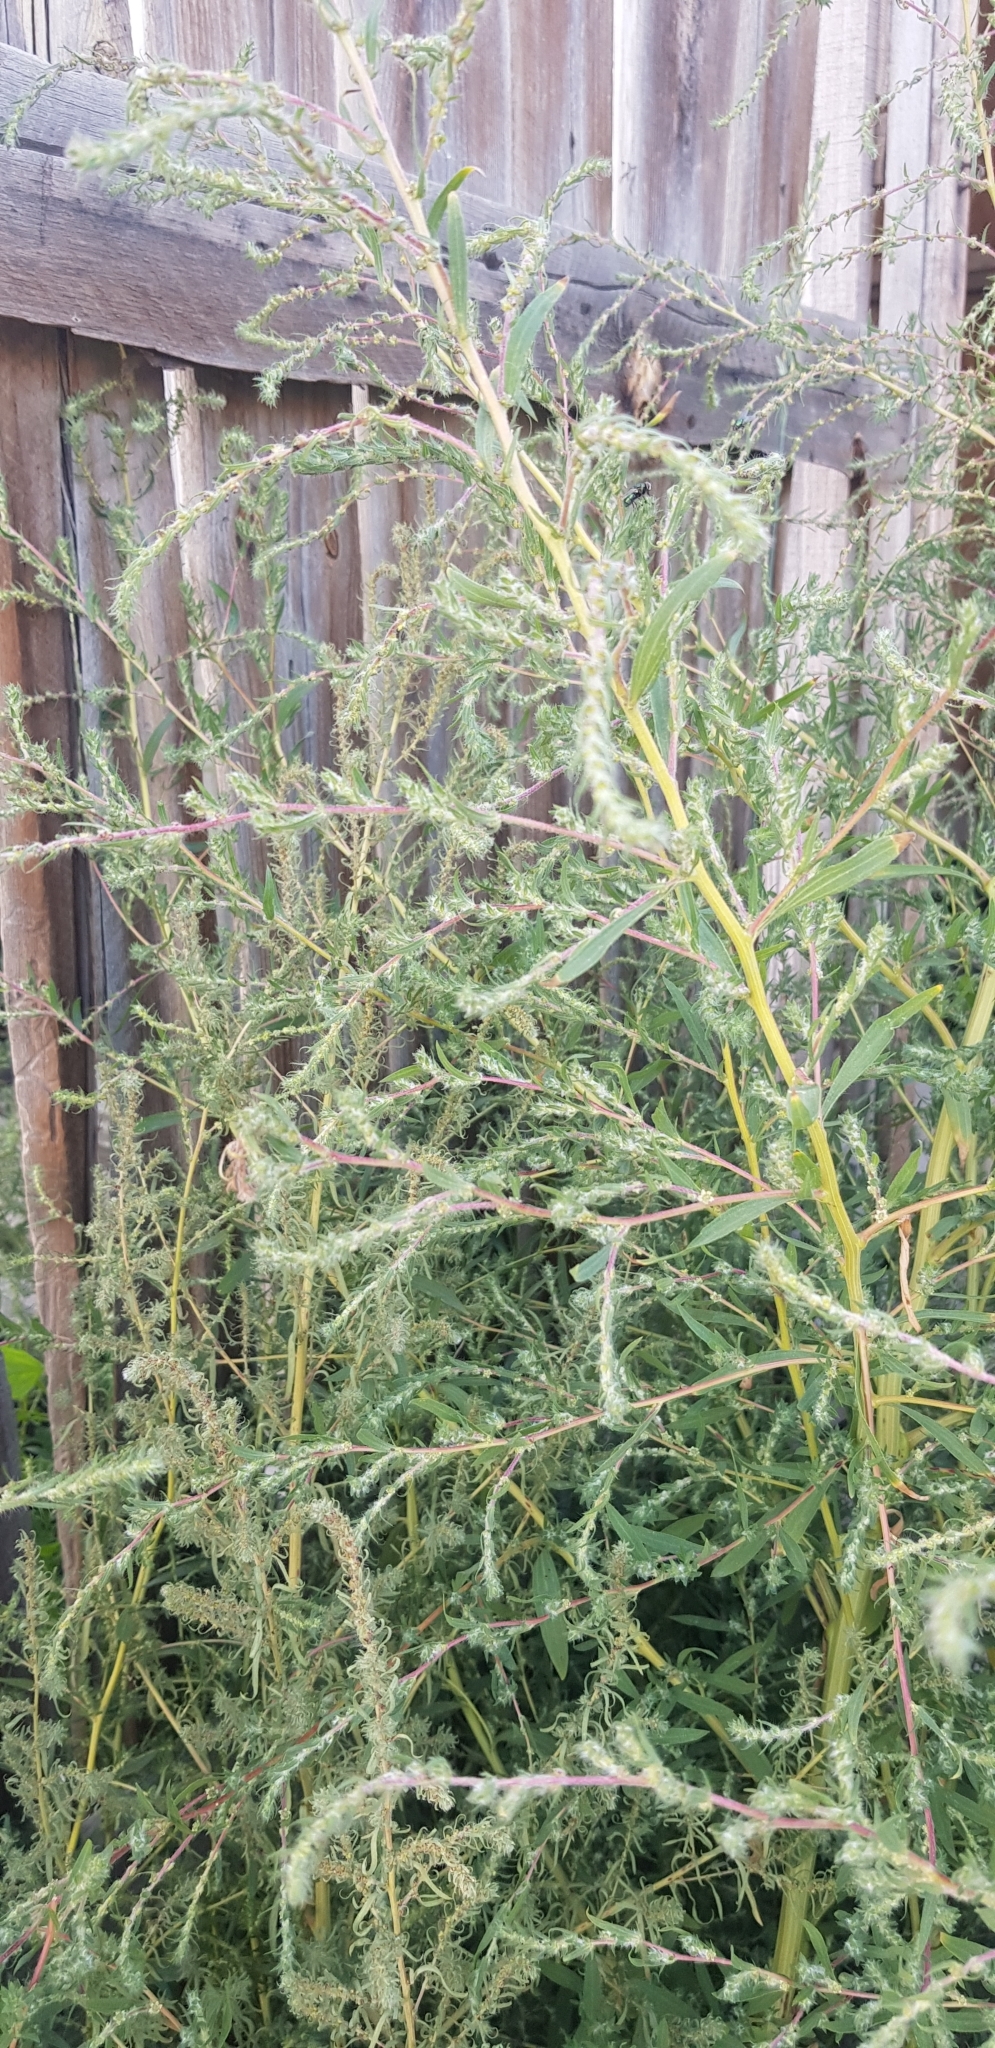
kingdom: Plantae
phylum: Tracheophyta
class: Magnoliopsida
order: Caryophyllales
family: Amaranthaceae
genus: Bassia
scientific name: Bassia prostrata
